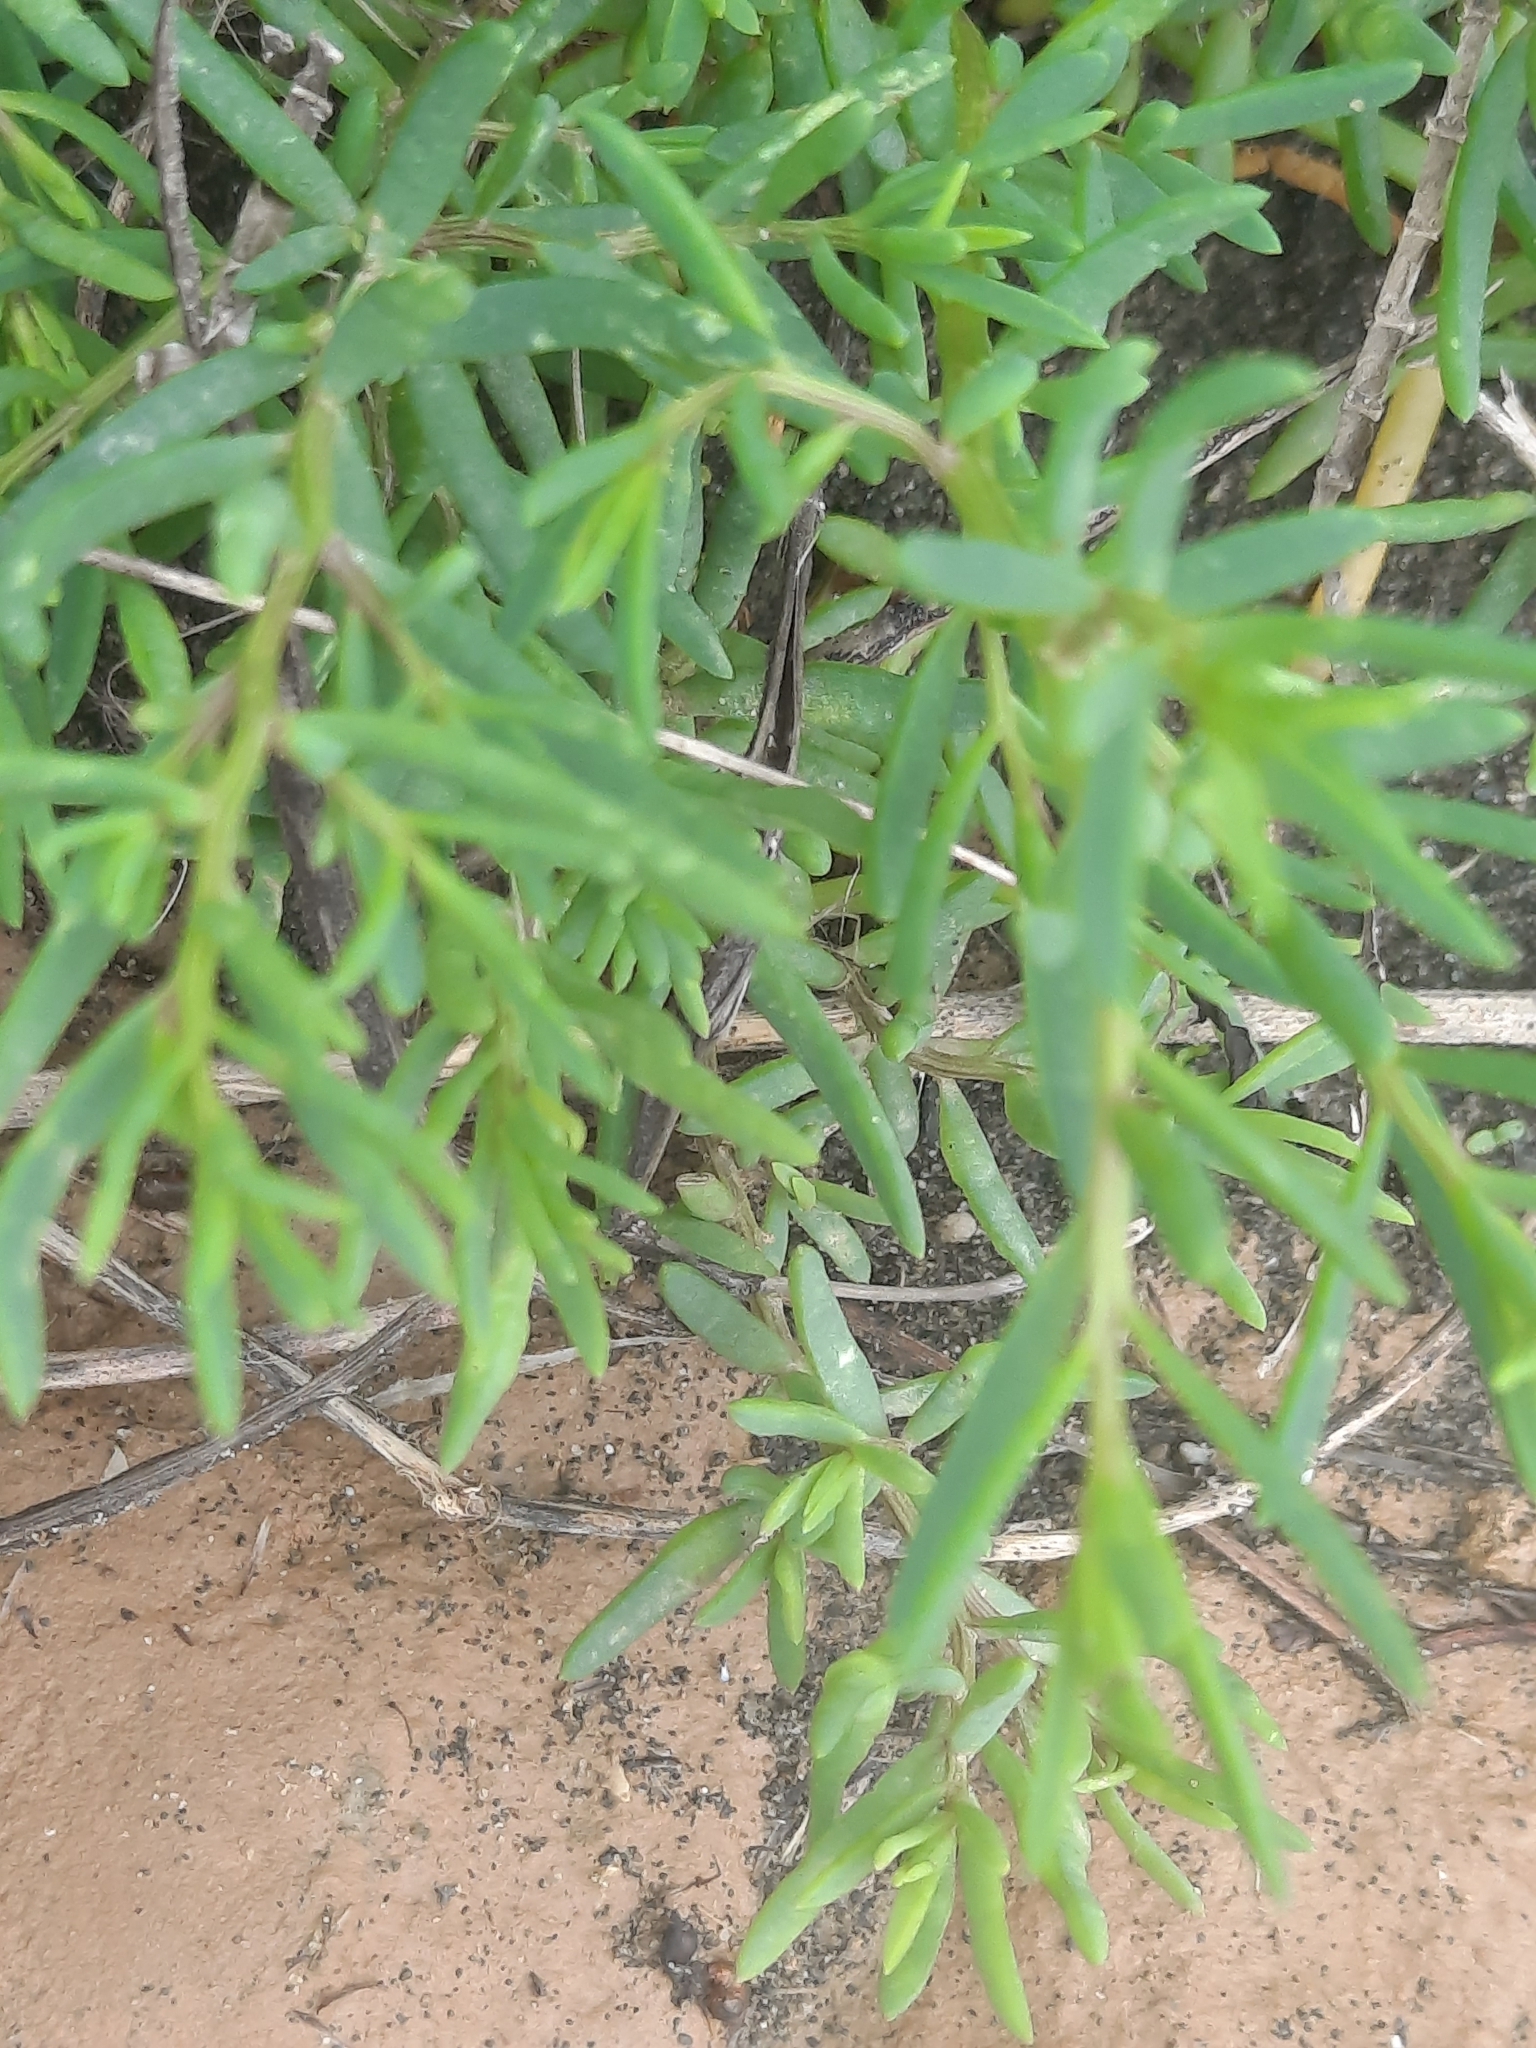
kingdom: Plantae
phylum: Tracheophyta
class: Magnoliopsida
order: Caryophyllales
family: Amaranthaceae
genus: Suaeda
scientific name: Suaeda maritima
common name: Annual sea-blite
